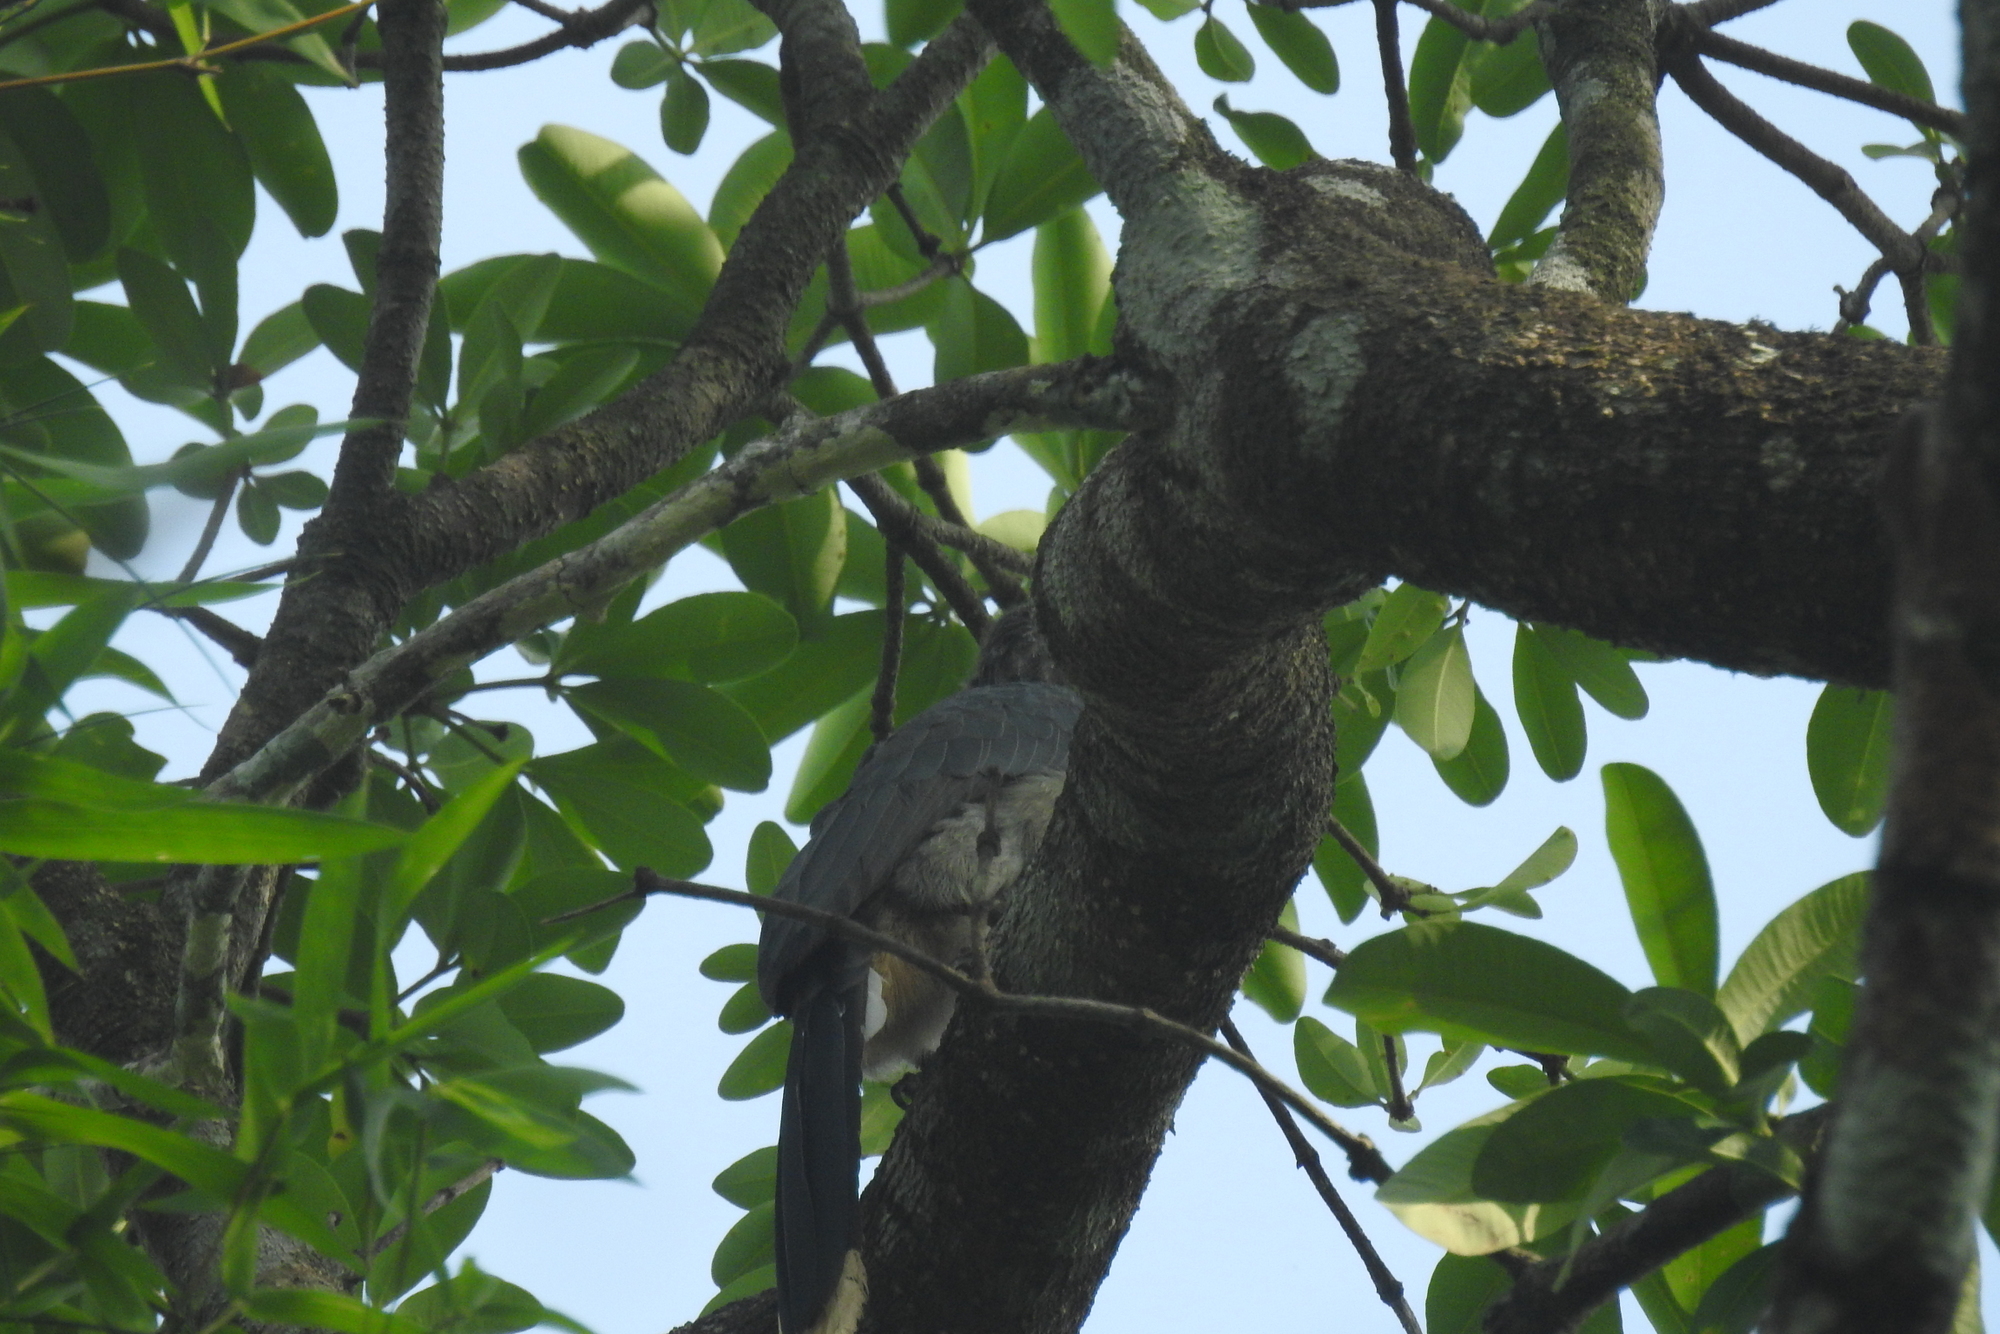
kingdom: Animalia
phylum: Chordata
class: Aves
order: Bucerotiformes
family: Bucerotidae
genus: Ocyceros
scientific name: Ocyceros griseus
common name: Malabar grey hornbill
